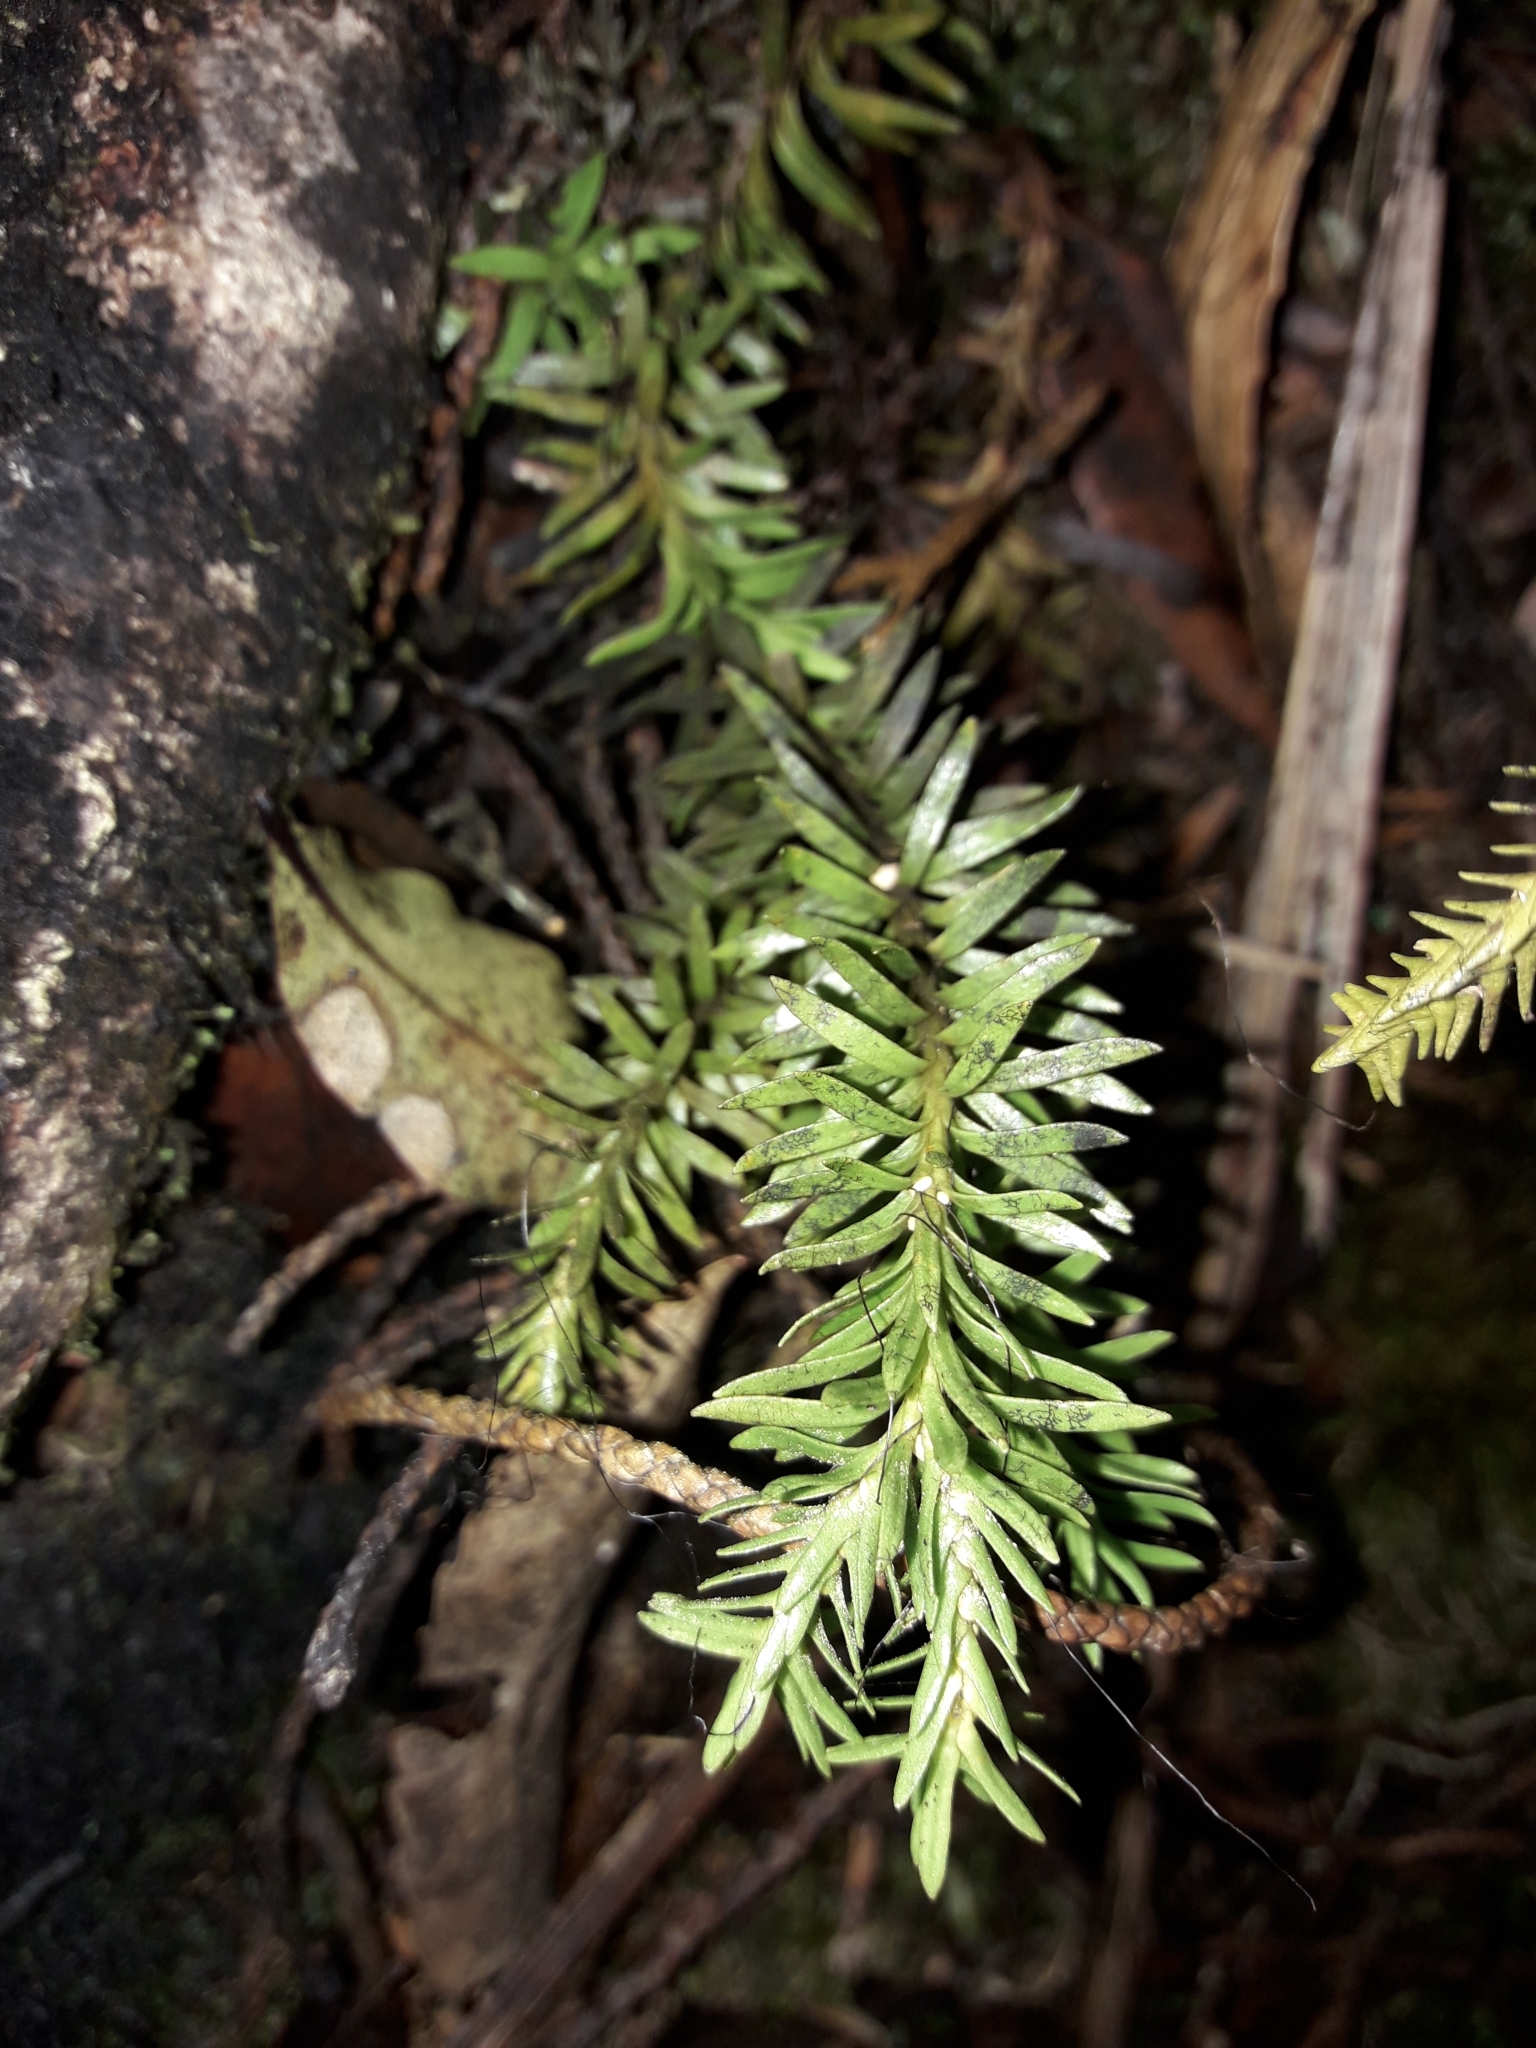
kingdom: Plantae
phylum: Tracheophyta
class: Lycopodiopsida
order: Lycopodiales
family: Lycopodiaceae
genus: Phlegmariurus
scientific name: Phlegmariurus varius
